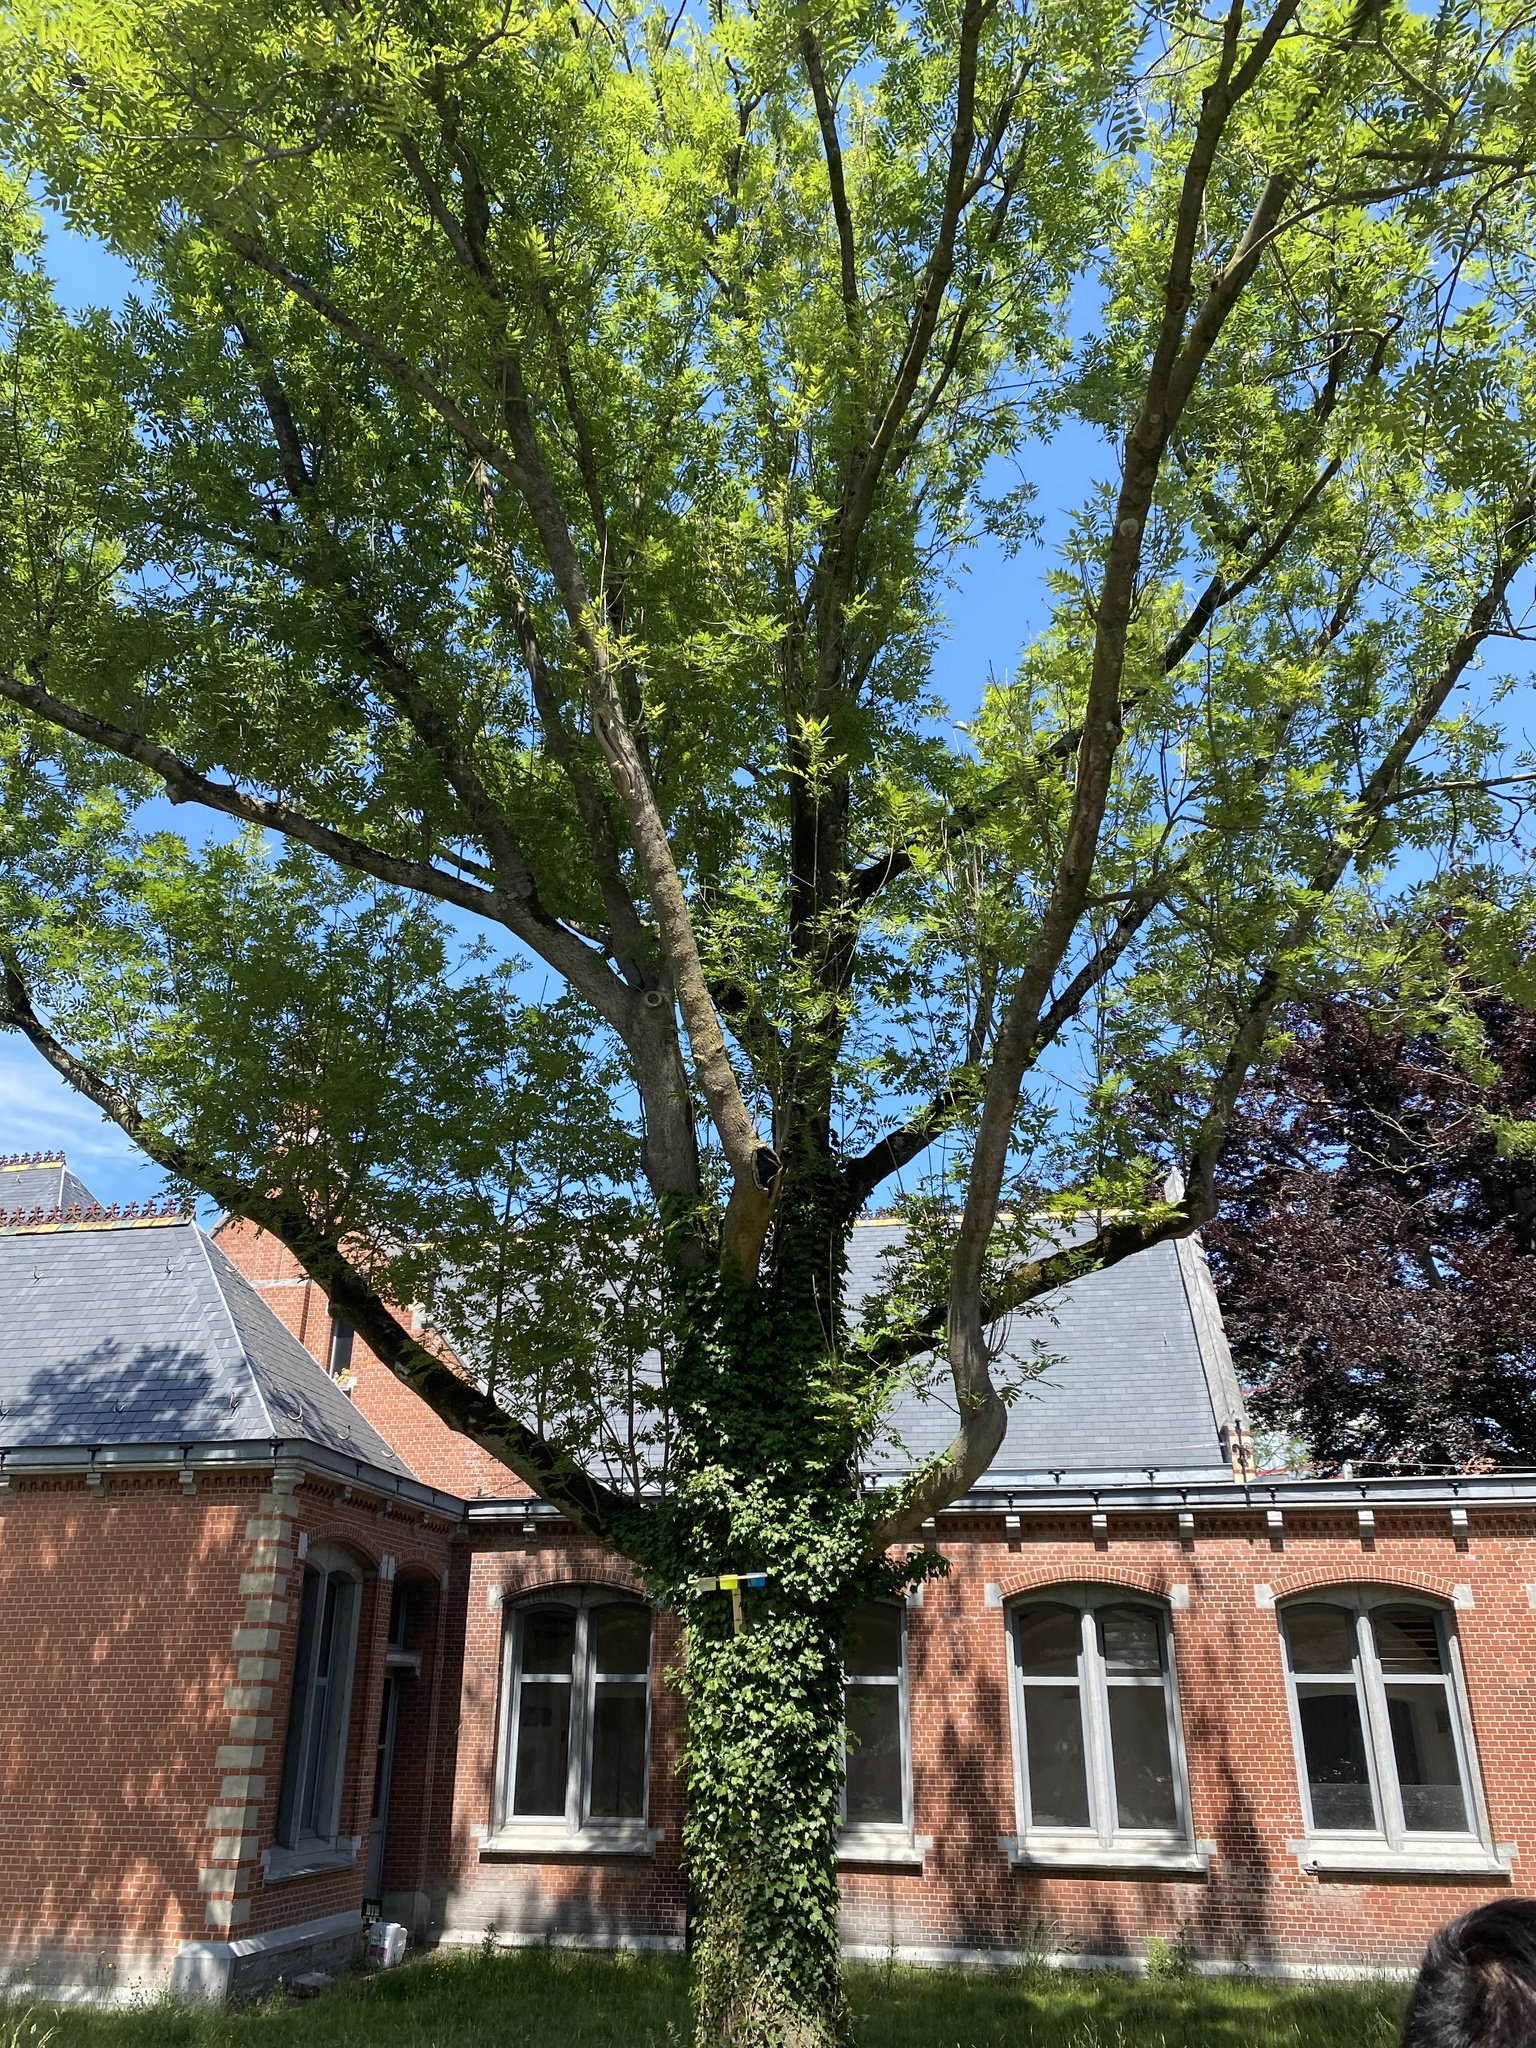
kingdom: Plantae
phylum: Tracheophyta
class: Magnoliopsida
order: Lamiales
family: Oleaceae
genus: Fraxinus
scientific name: Fraxinus excelsior
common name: European ash
